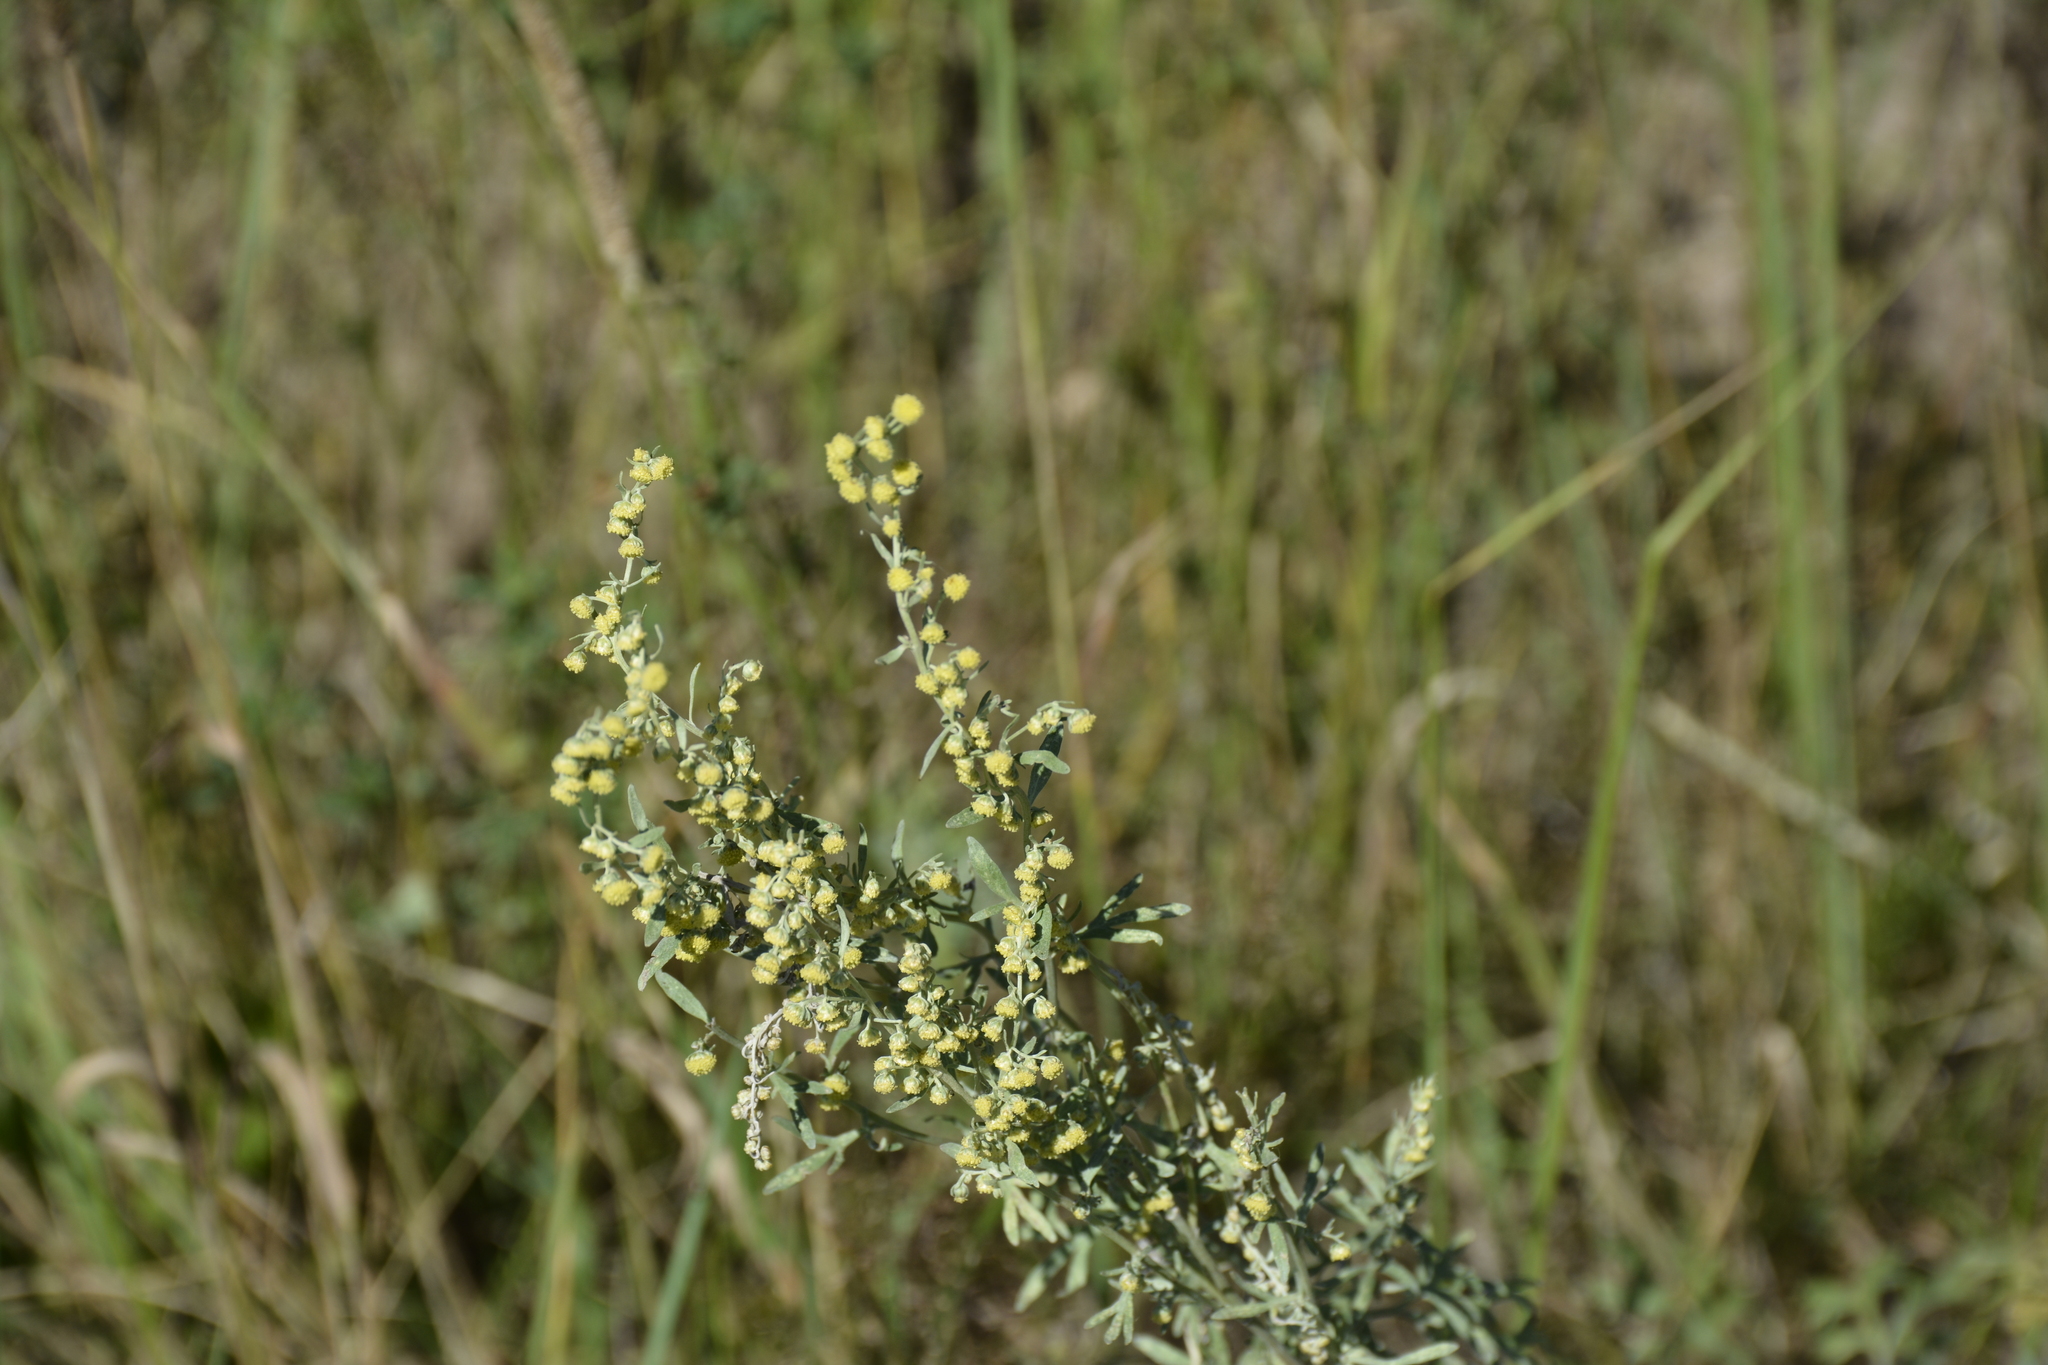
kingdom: Plantae
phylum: Tracheophyta
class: Magnoliopsida
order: Asterales
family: Asteraceae
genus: Artemisia
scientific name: Artemisia absinthium
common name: Wormwood
